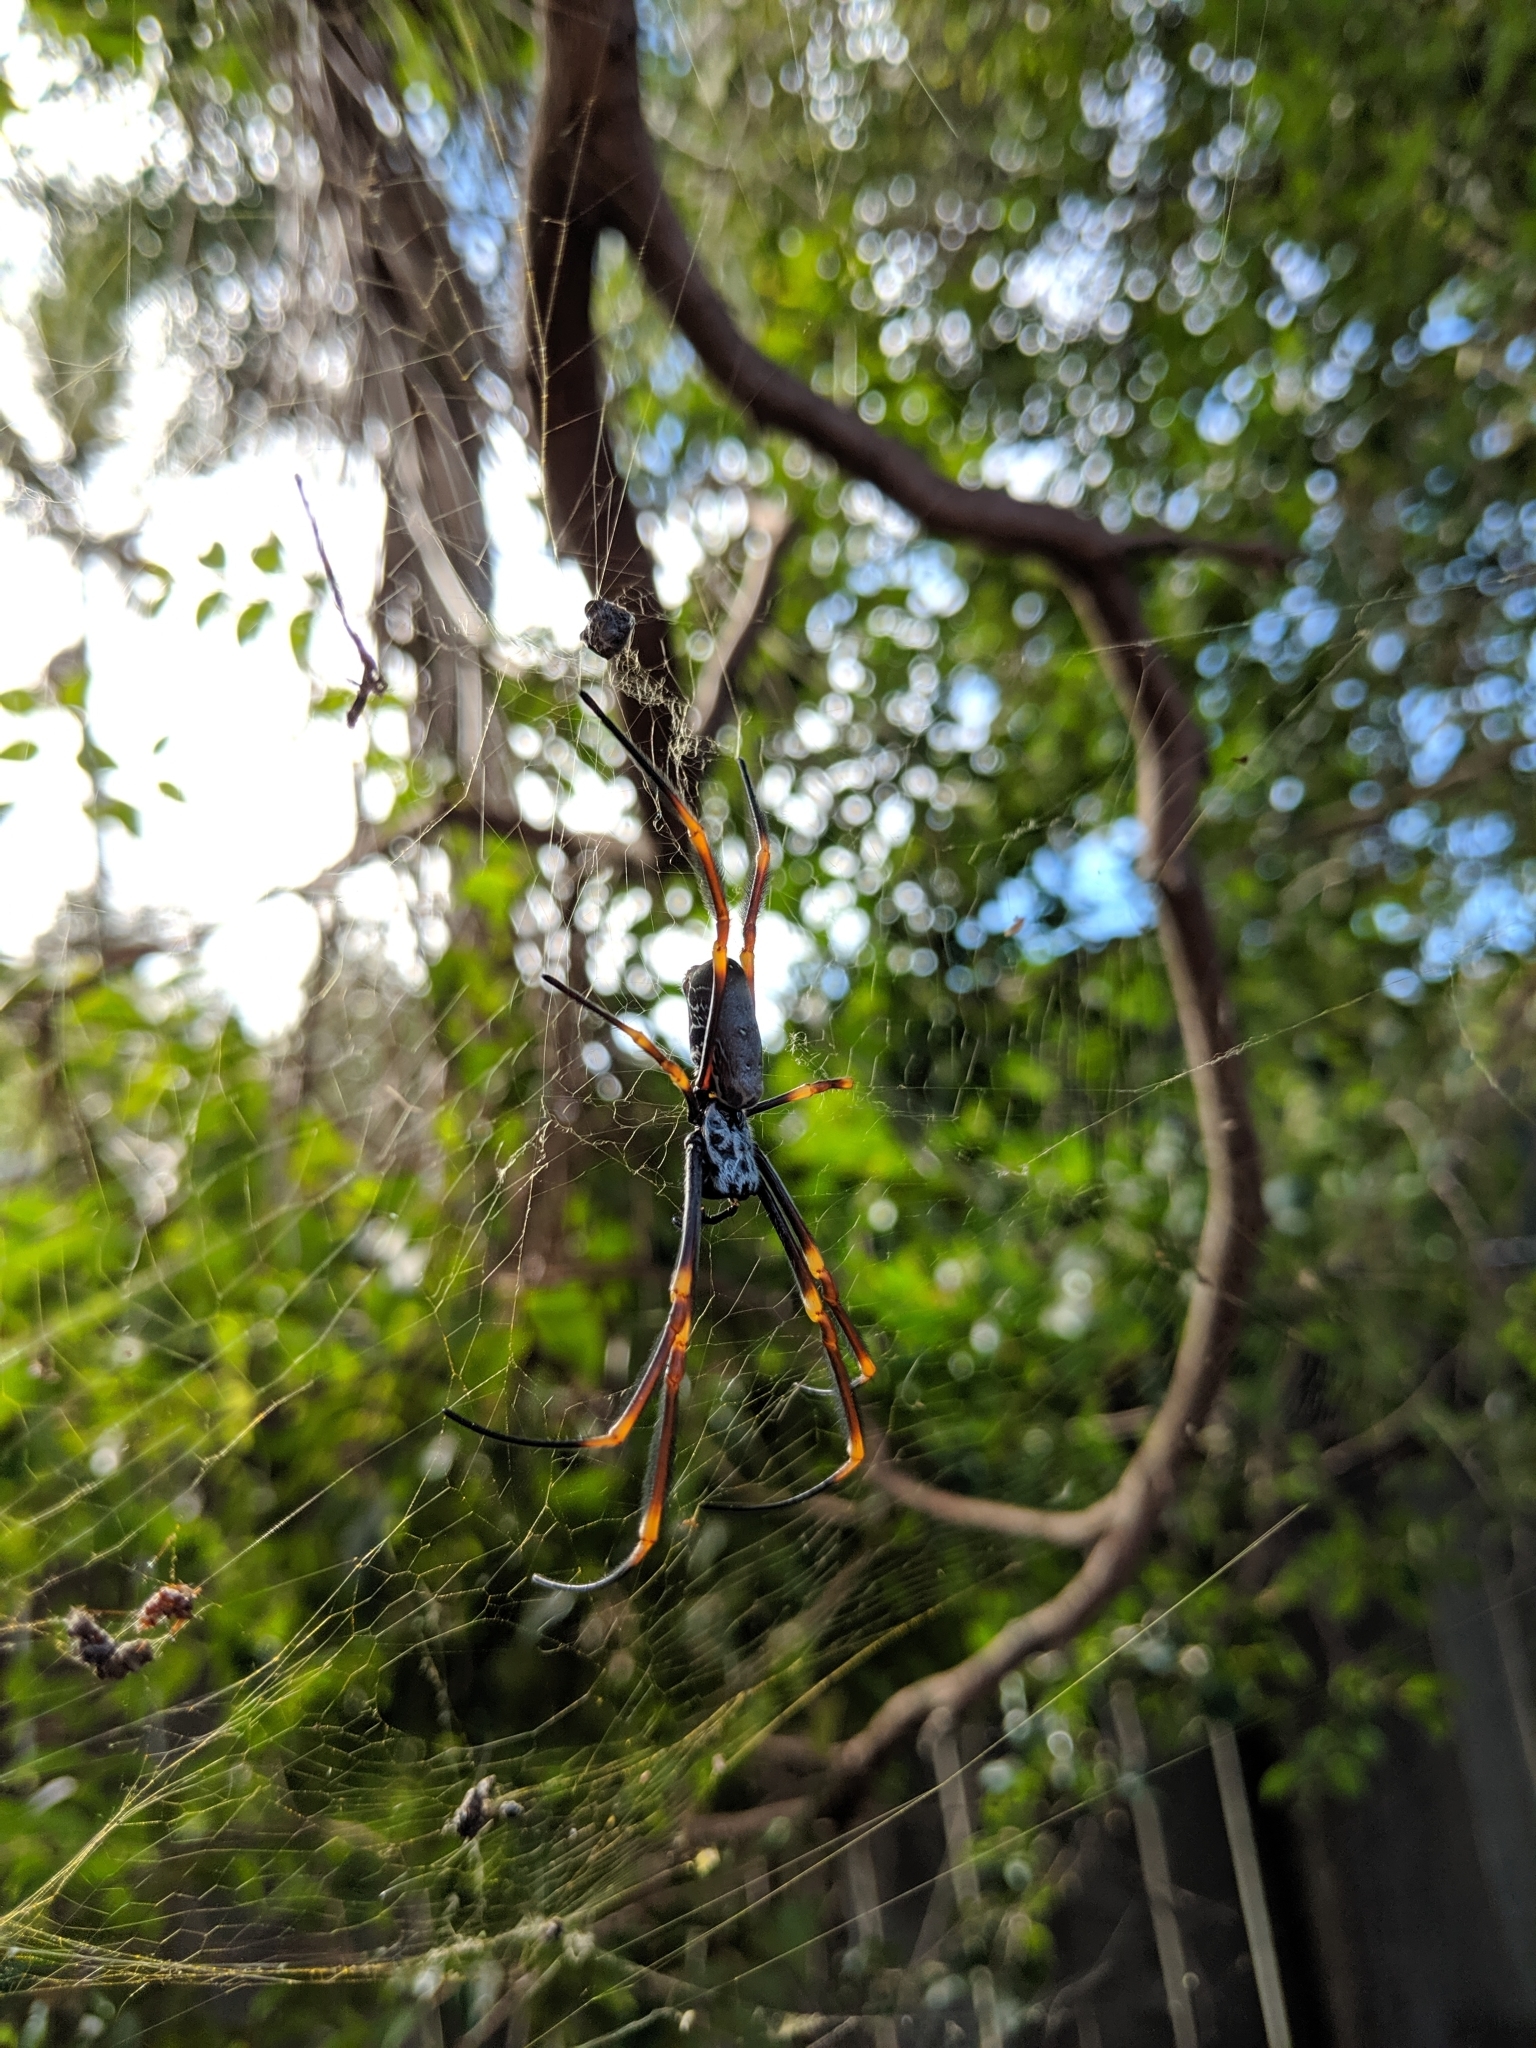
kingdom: Animalia
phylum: Arthropoda
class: Arachnida
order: Araneae
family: Araneidae
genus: Trichonephila
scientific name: Trichonephila plumipes
